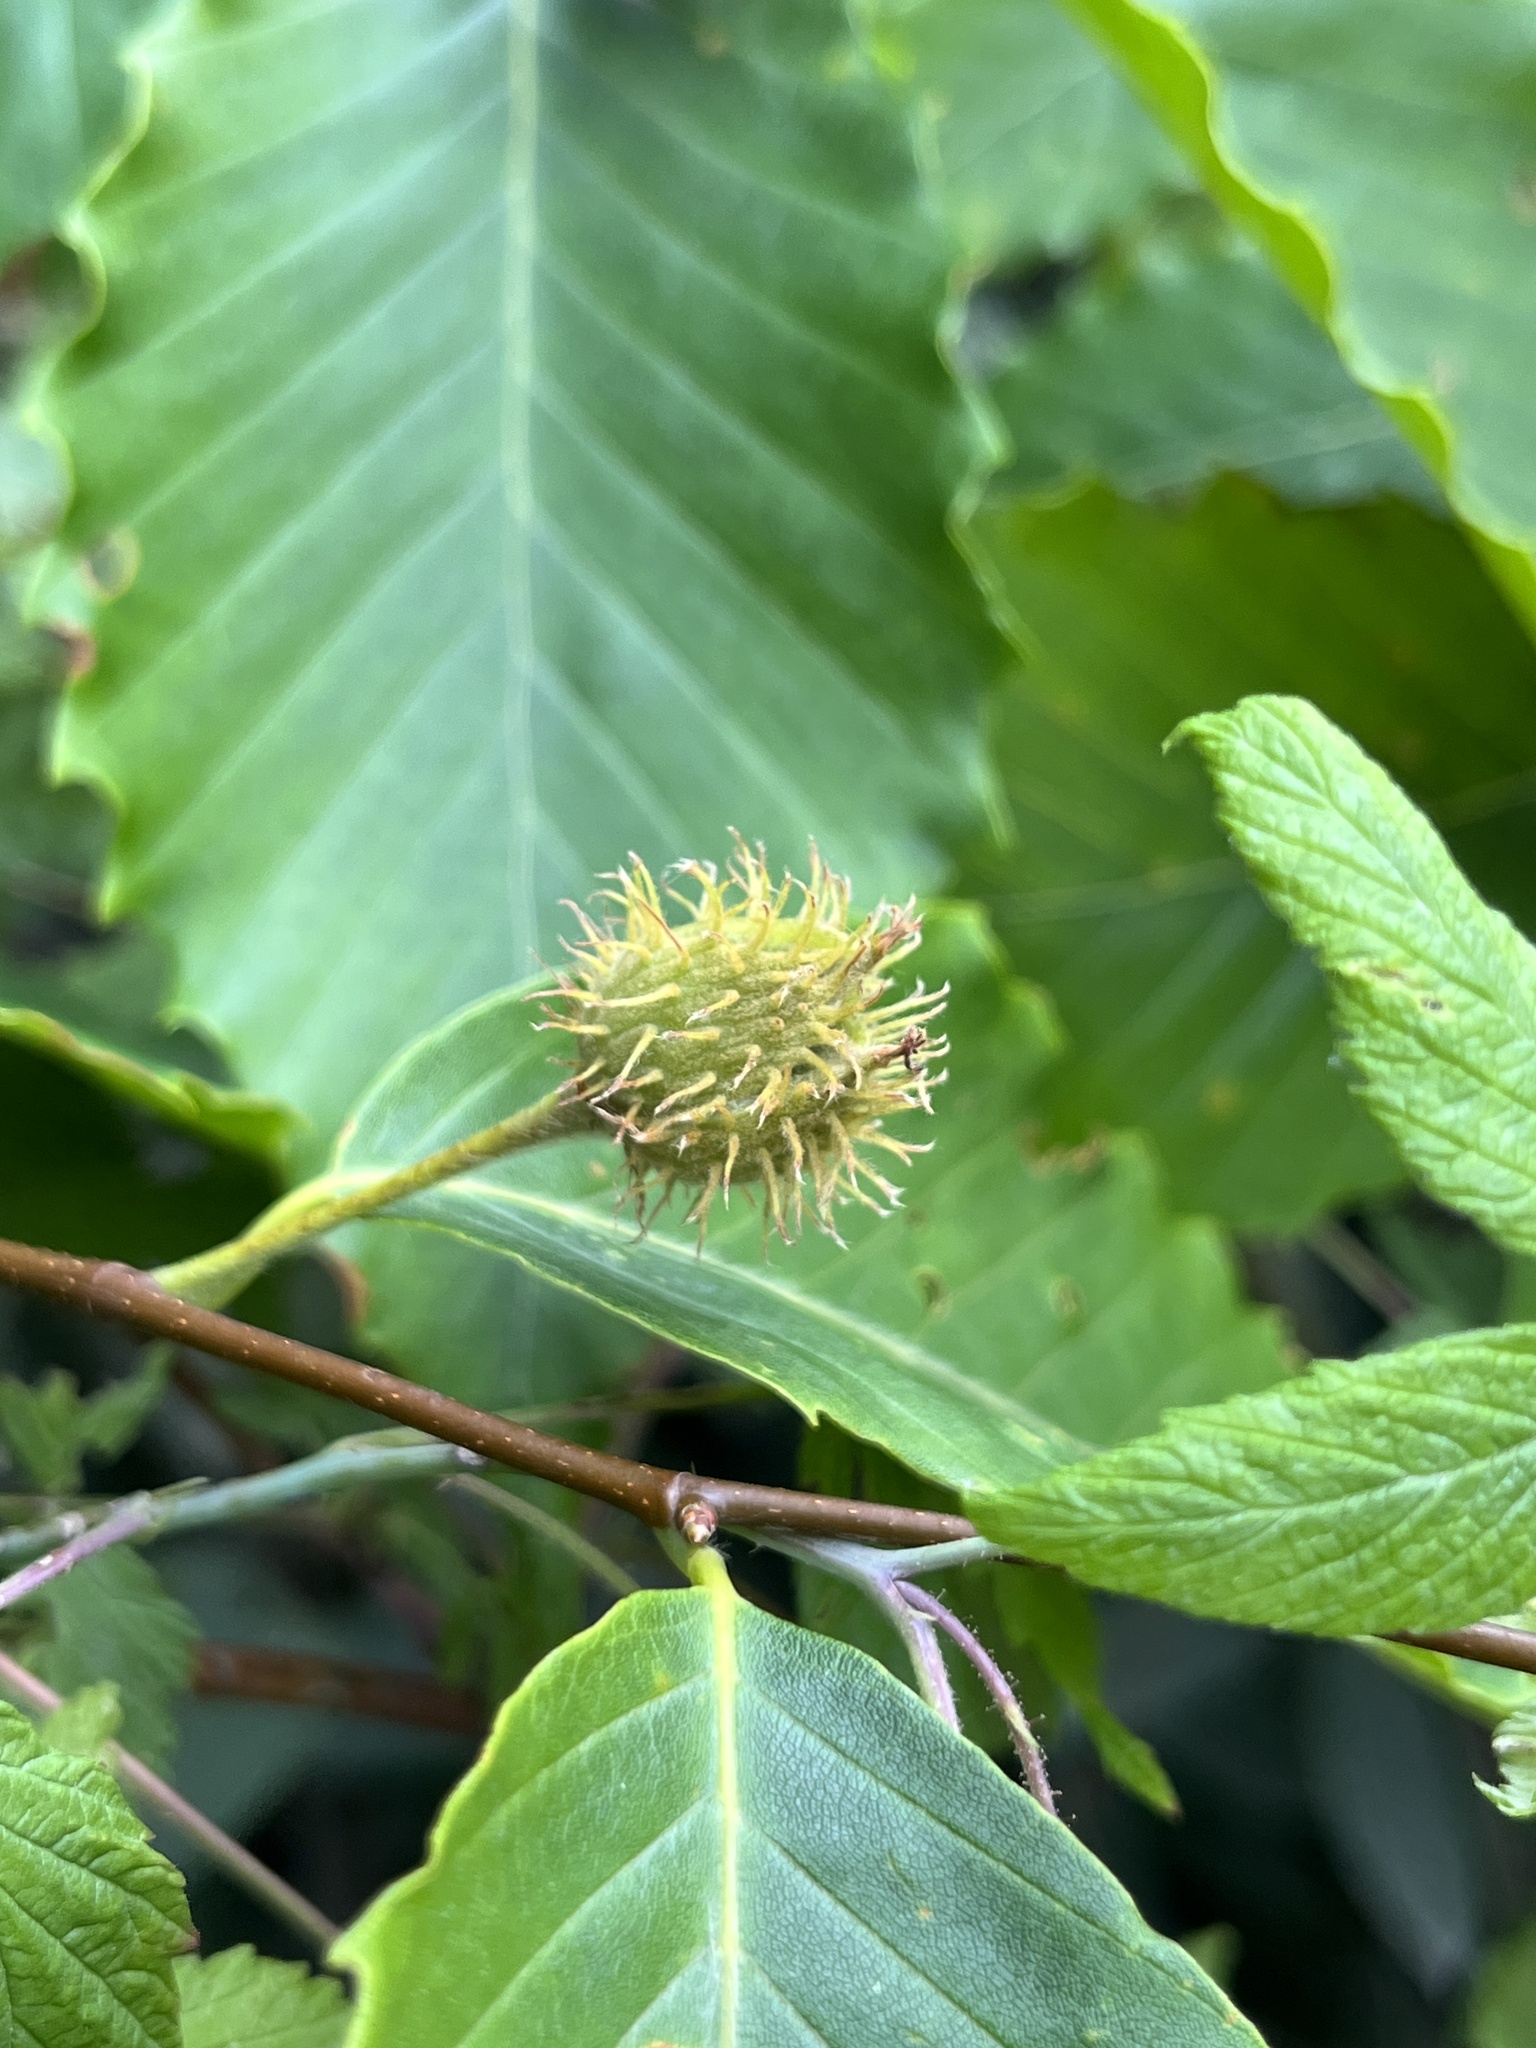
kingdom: Plantae
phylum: Tracheophyta
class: Magnoliopsida
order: Fagales
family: Fagaceae
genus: Fagus
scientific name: Fagus grandifolia
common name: American beech
